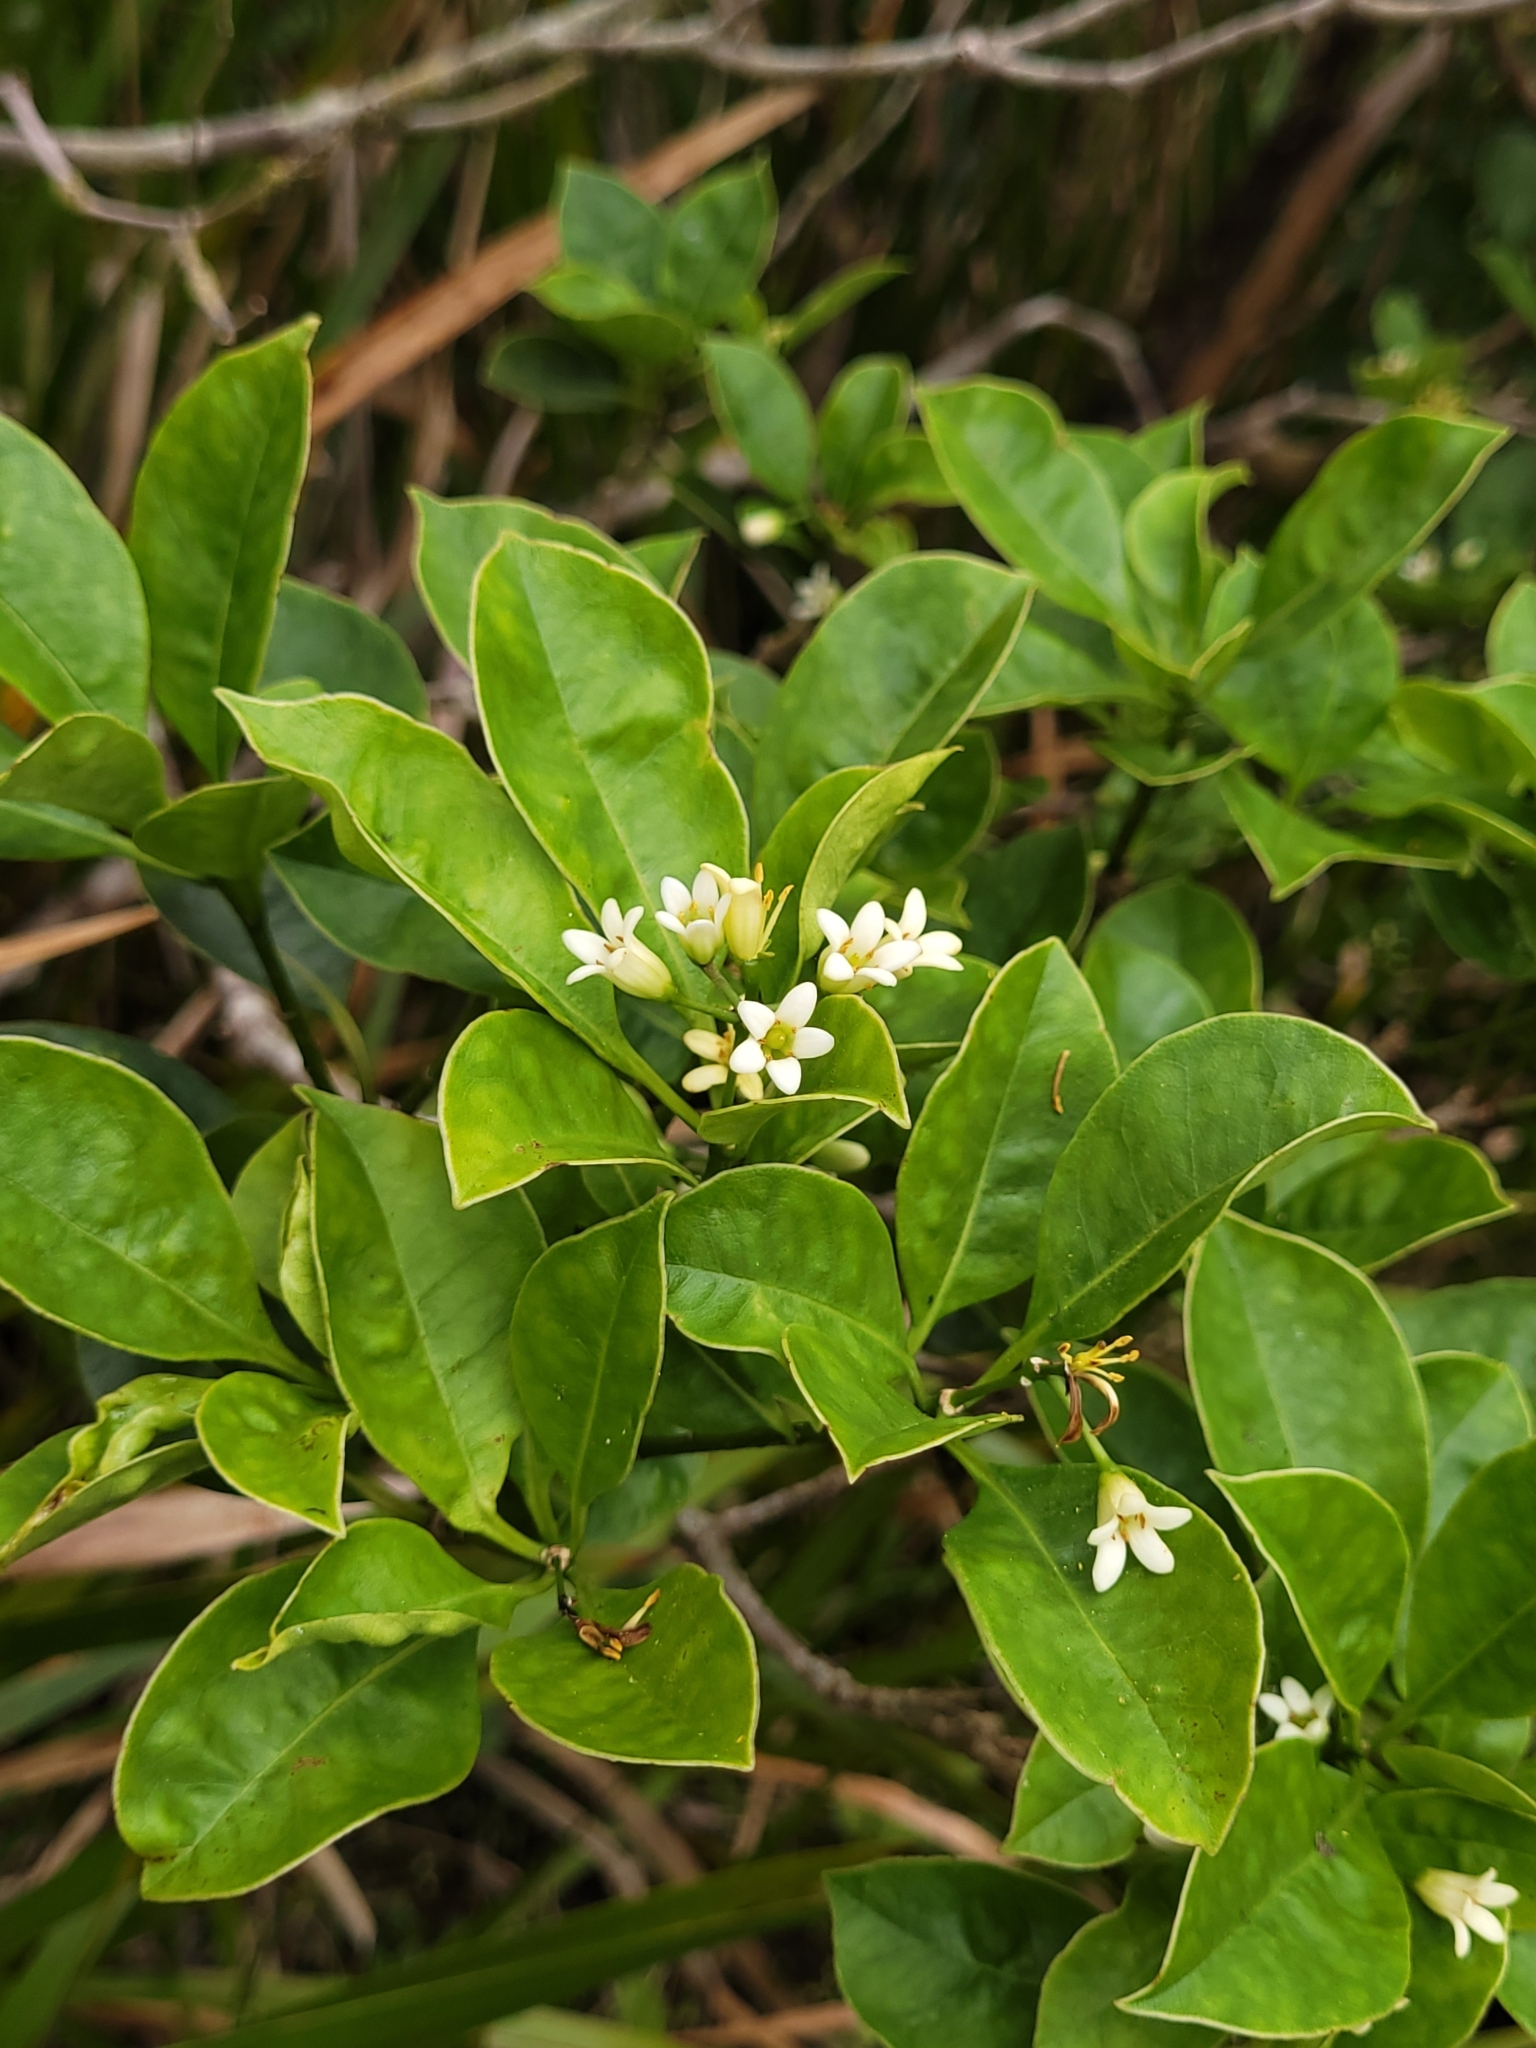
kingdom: Plantae
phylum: Tracheophyta
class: Magnoliopsida
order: Apiales
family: Pittosporaceae
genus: Pittosporum
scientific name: Pittosporum senacia
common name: Cheesewood
